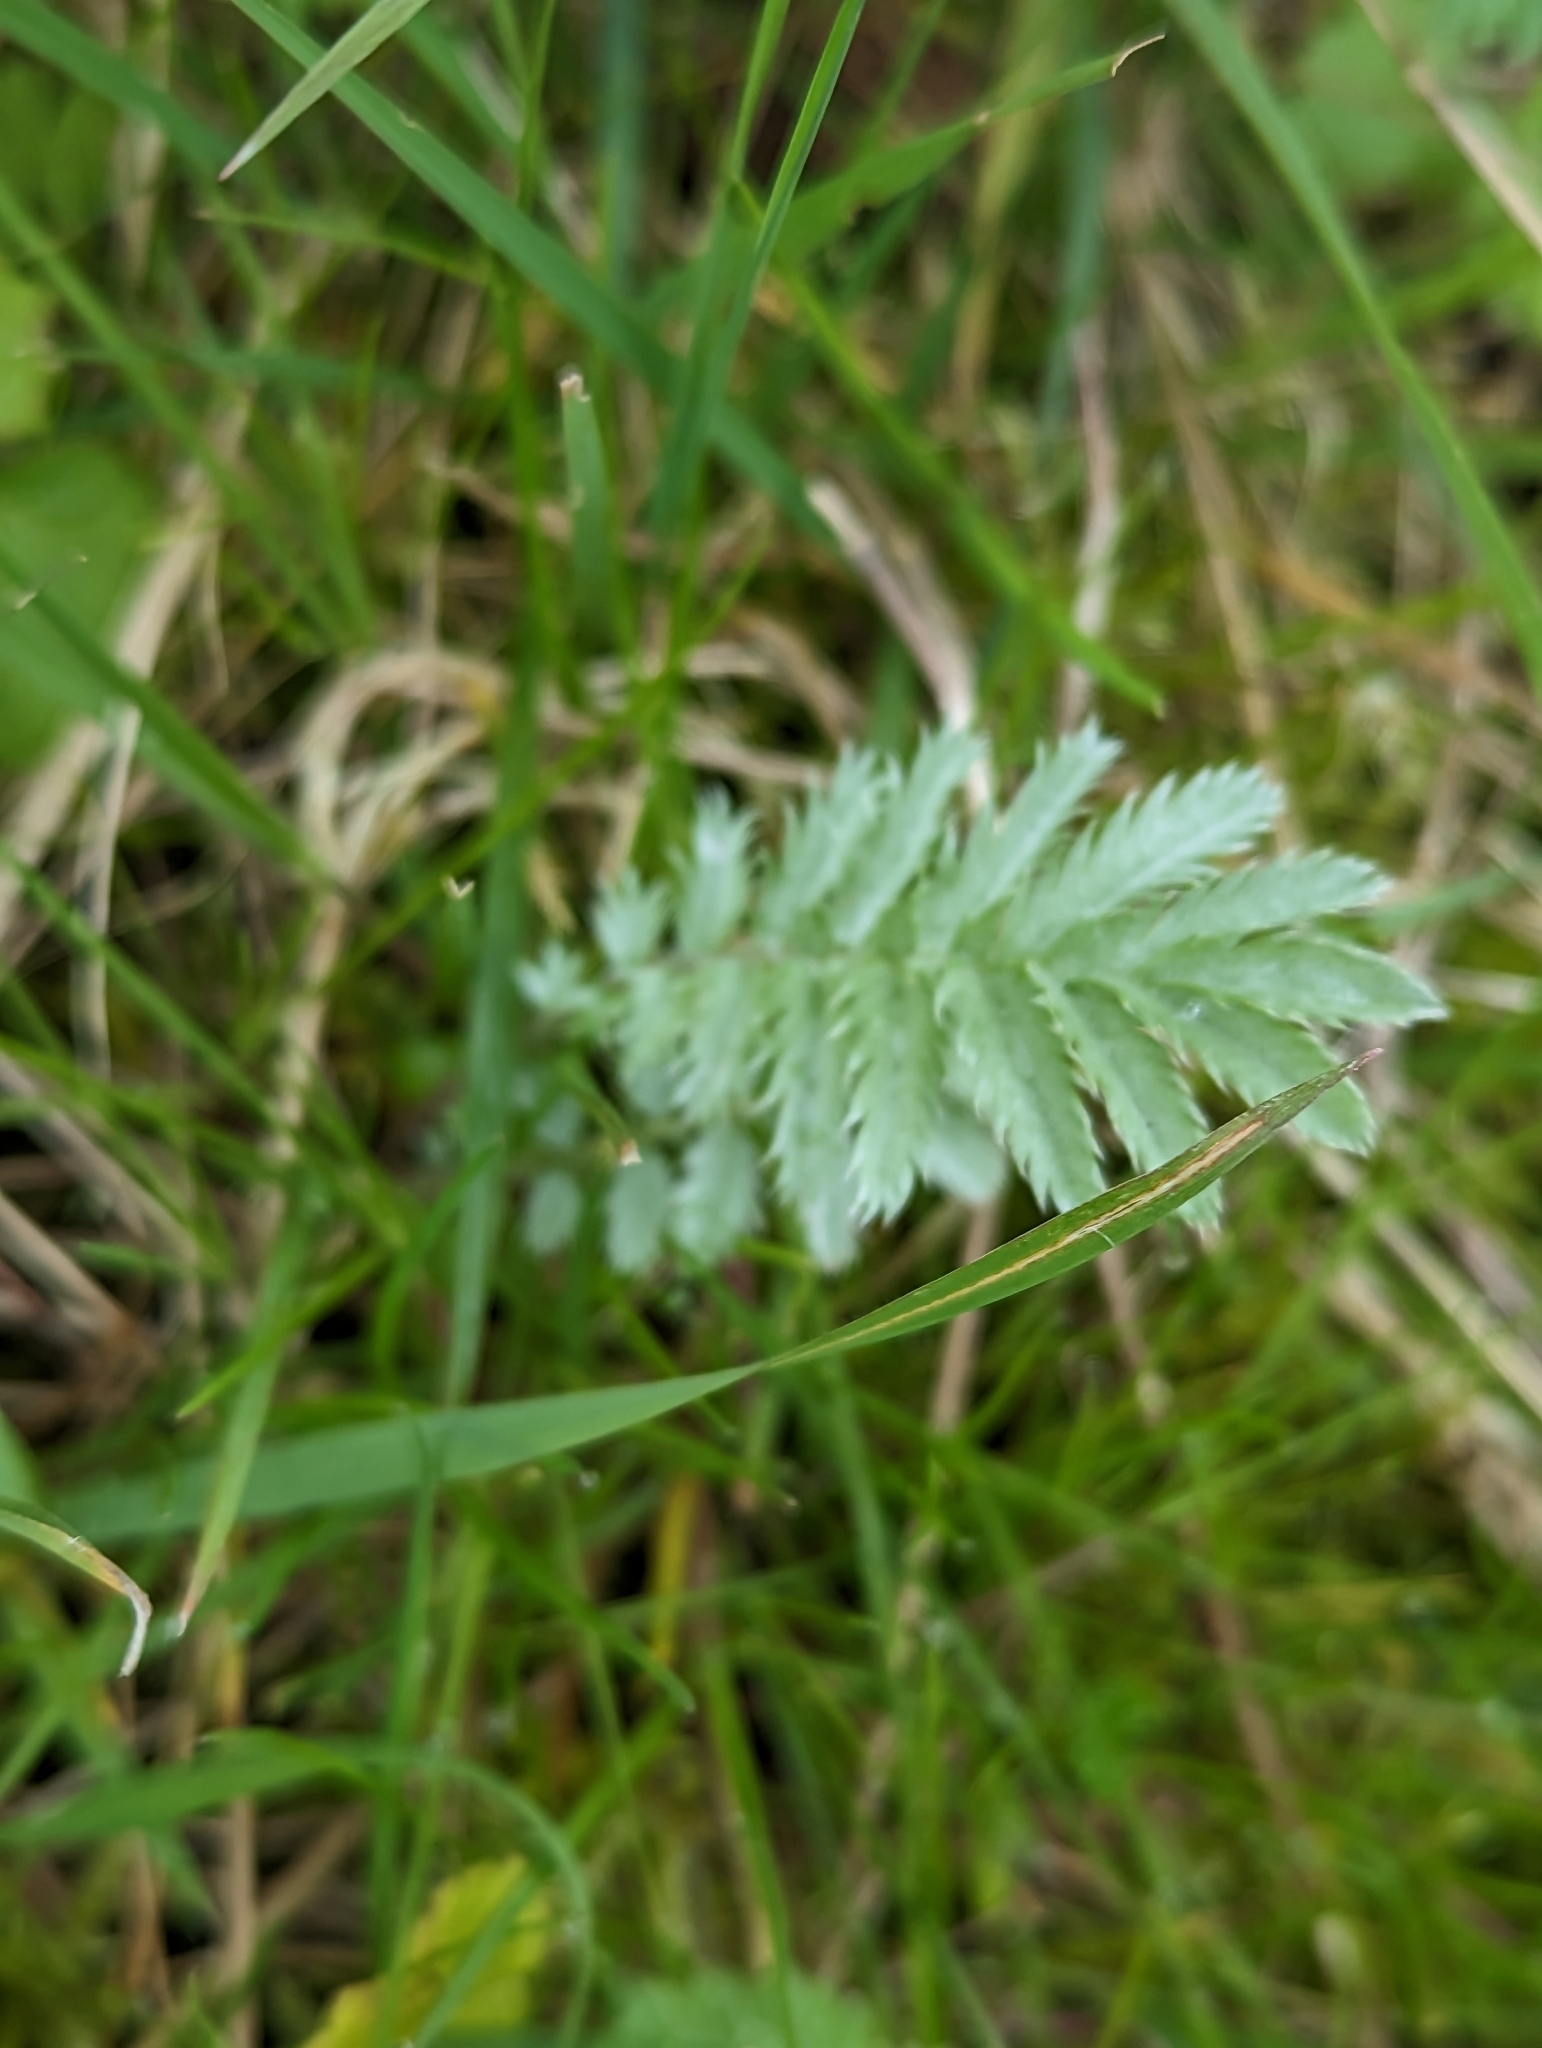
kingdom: Plantae
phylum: Tracheophyta
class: Magnoliopsida
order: Rosales
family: Rosaceae
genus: Argentina
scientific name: Argentina anserina
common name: Common silverweed
